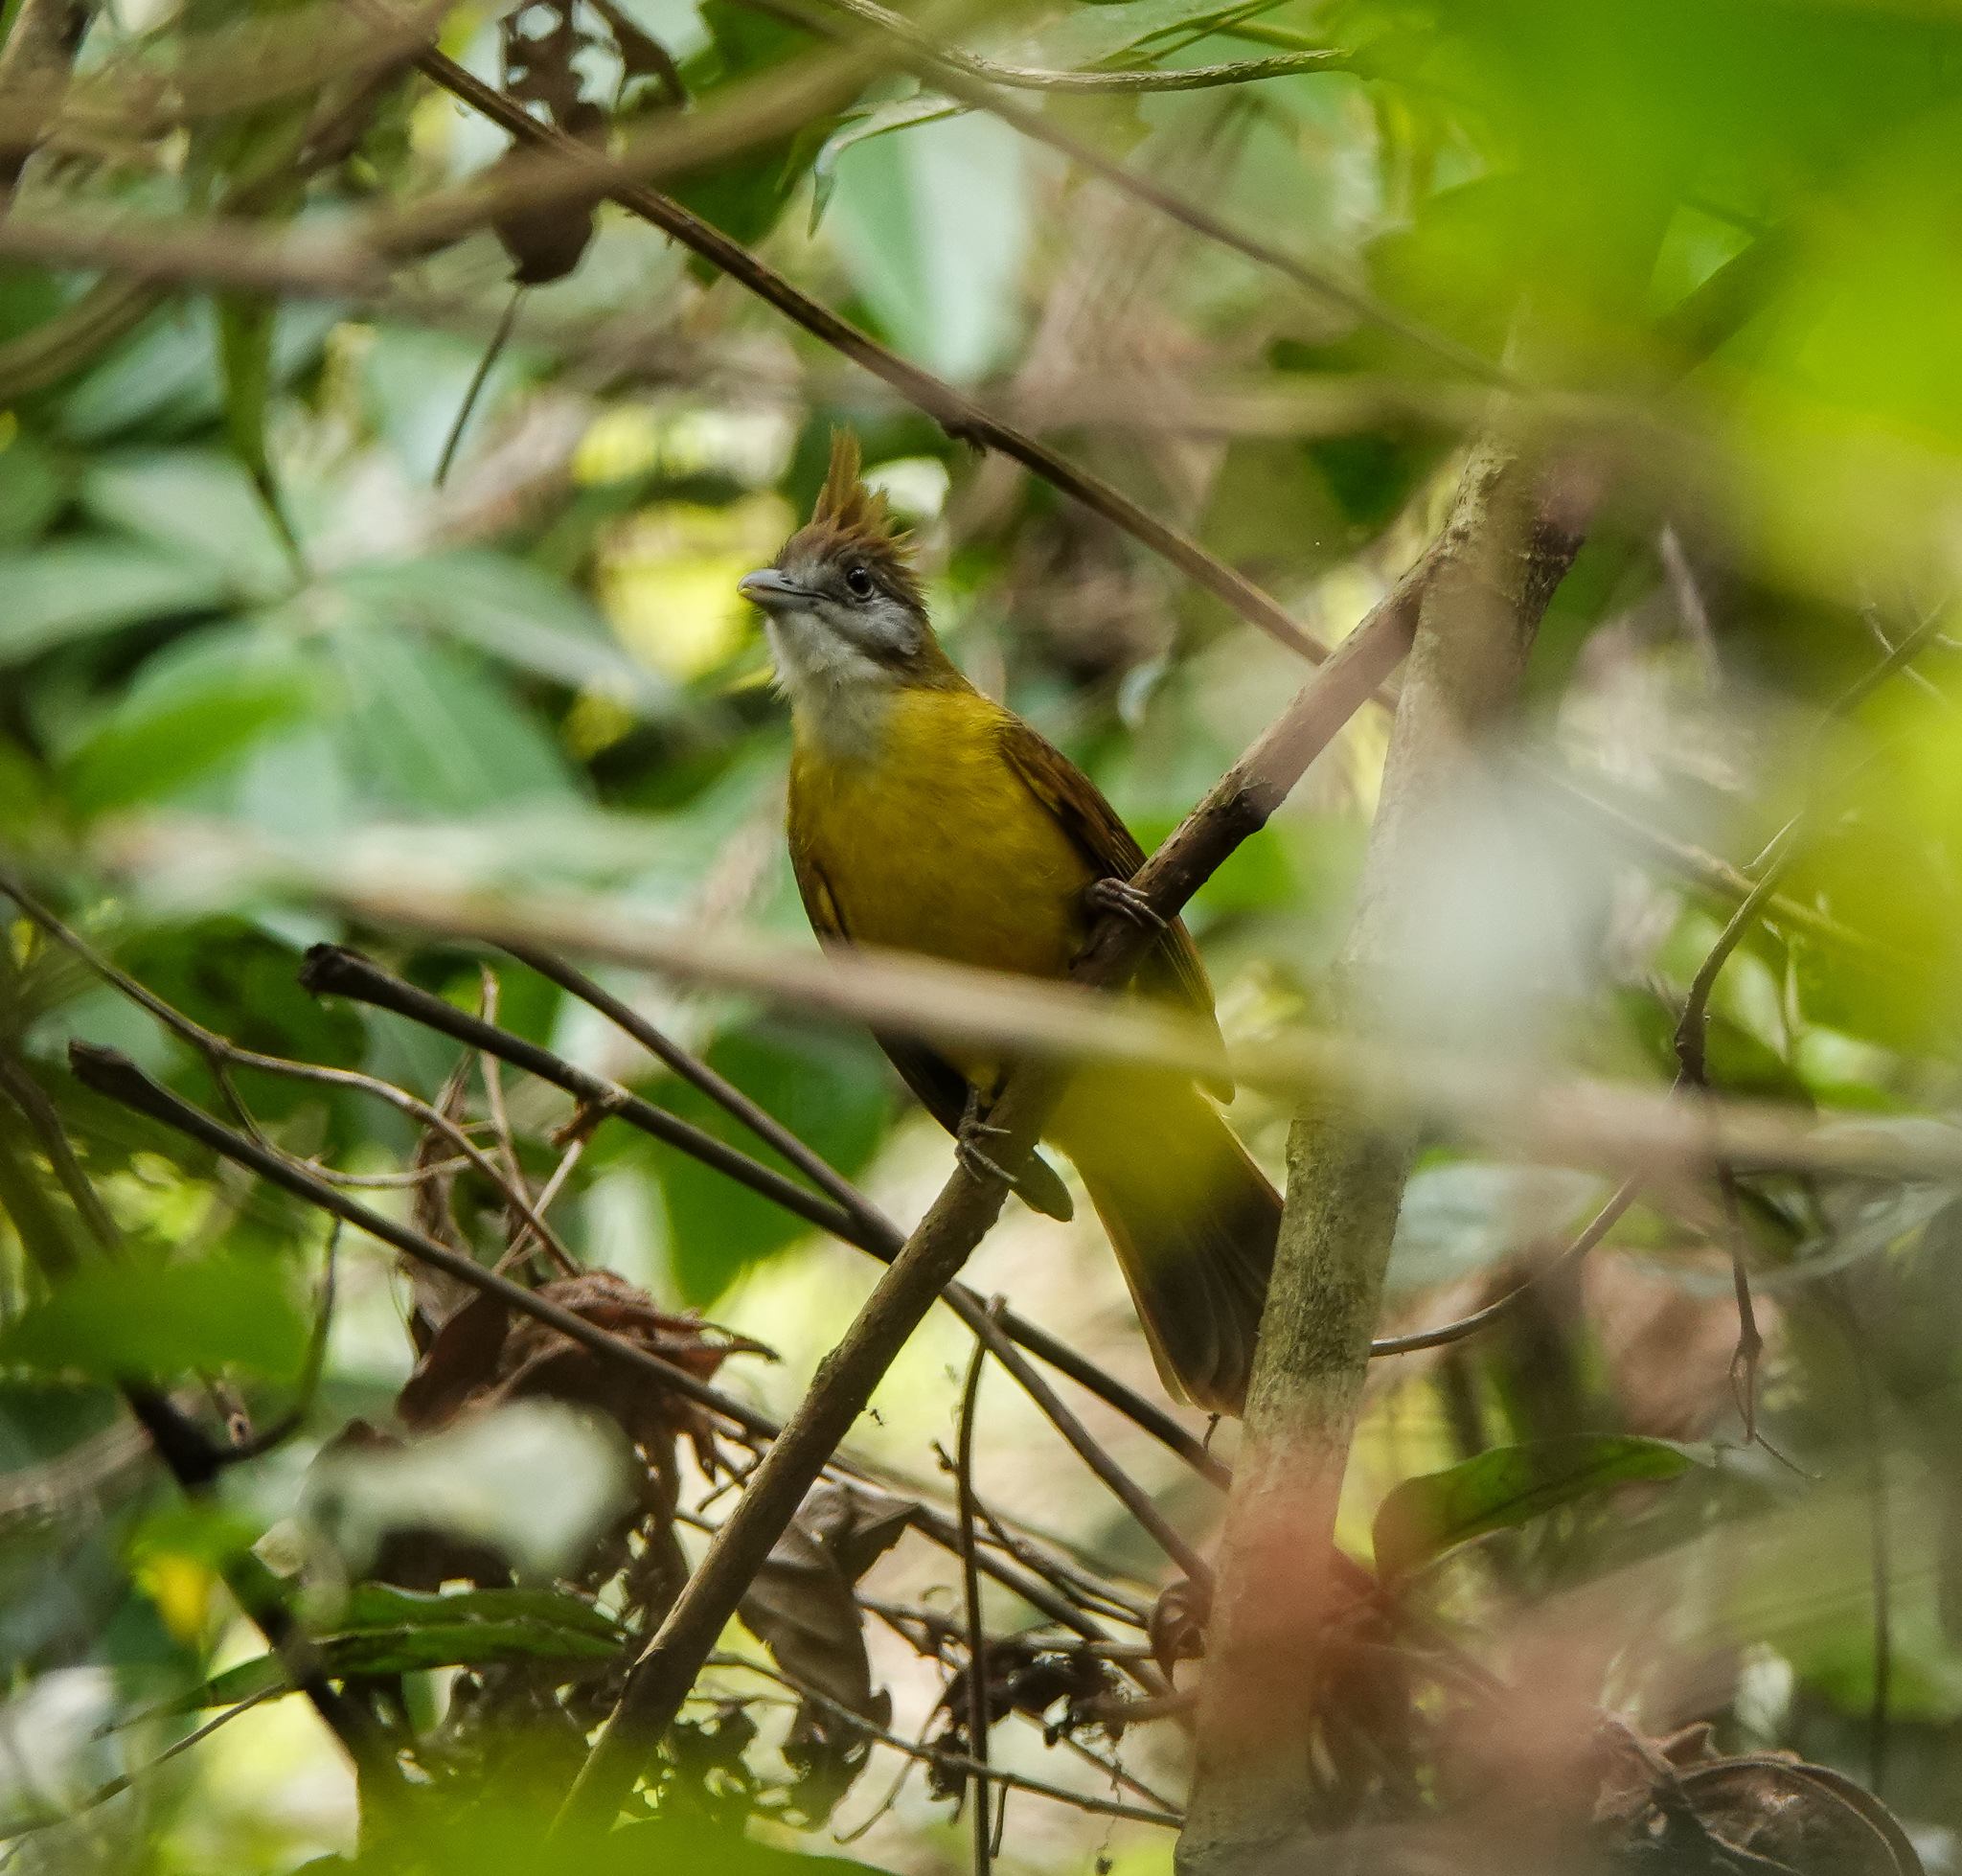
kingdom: Animalia
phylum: Chordata
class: Aves
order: Passeriformes
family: Pycnonotidae
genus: Alophoixus
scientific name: Alophoixus flaveolus
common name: White-throated bulbul
